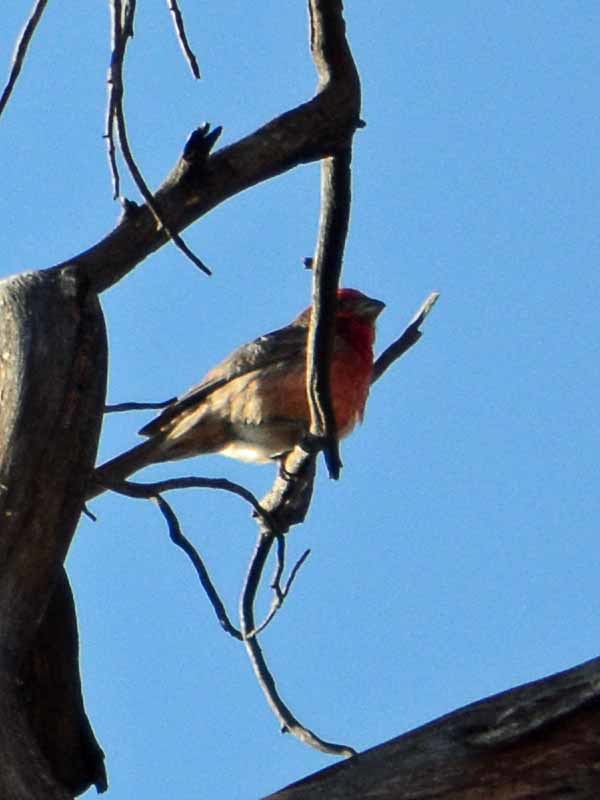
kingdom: Animalia
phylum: Chordata
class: Aves
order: Passeriformes
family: Fringillidae
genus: Haemorhous
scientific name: Haemorhous mexicanus
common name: House finch
